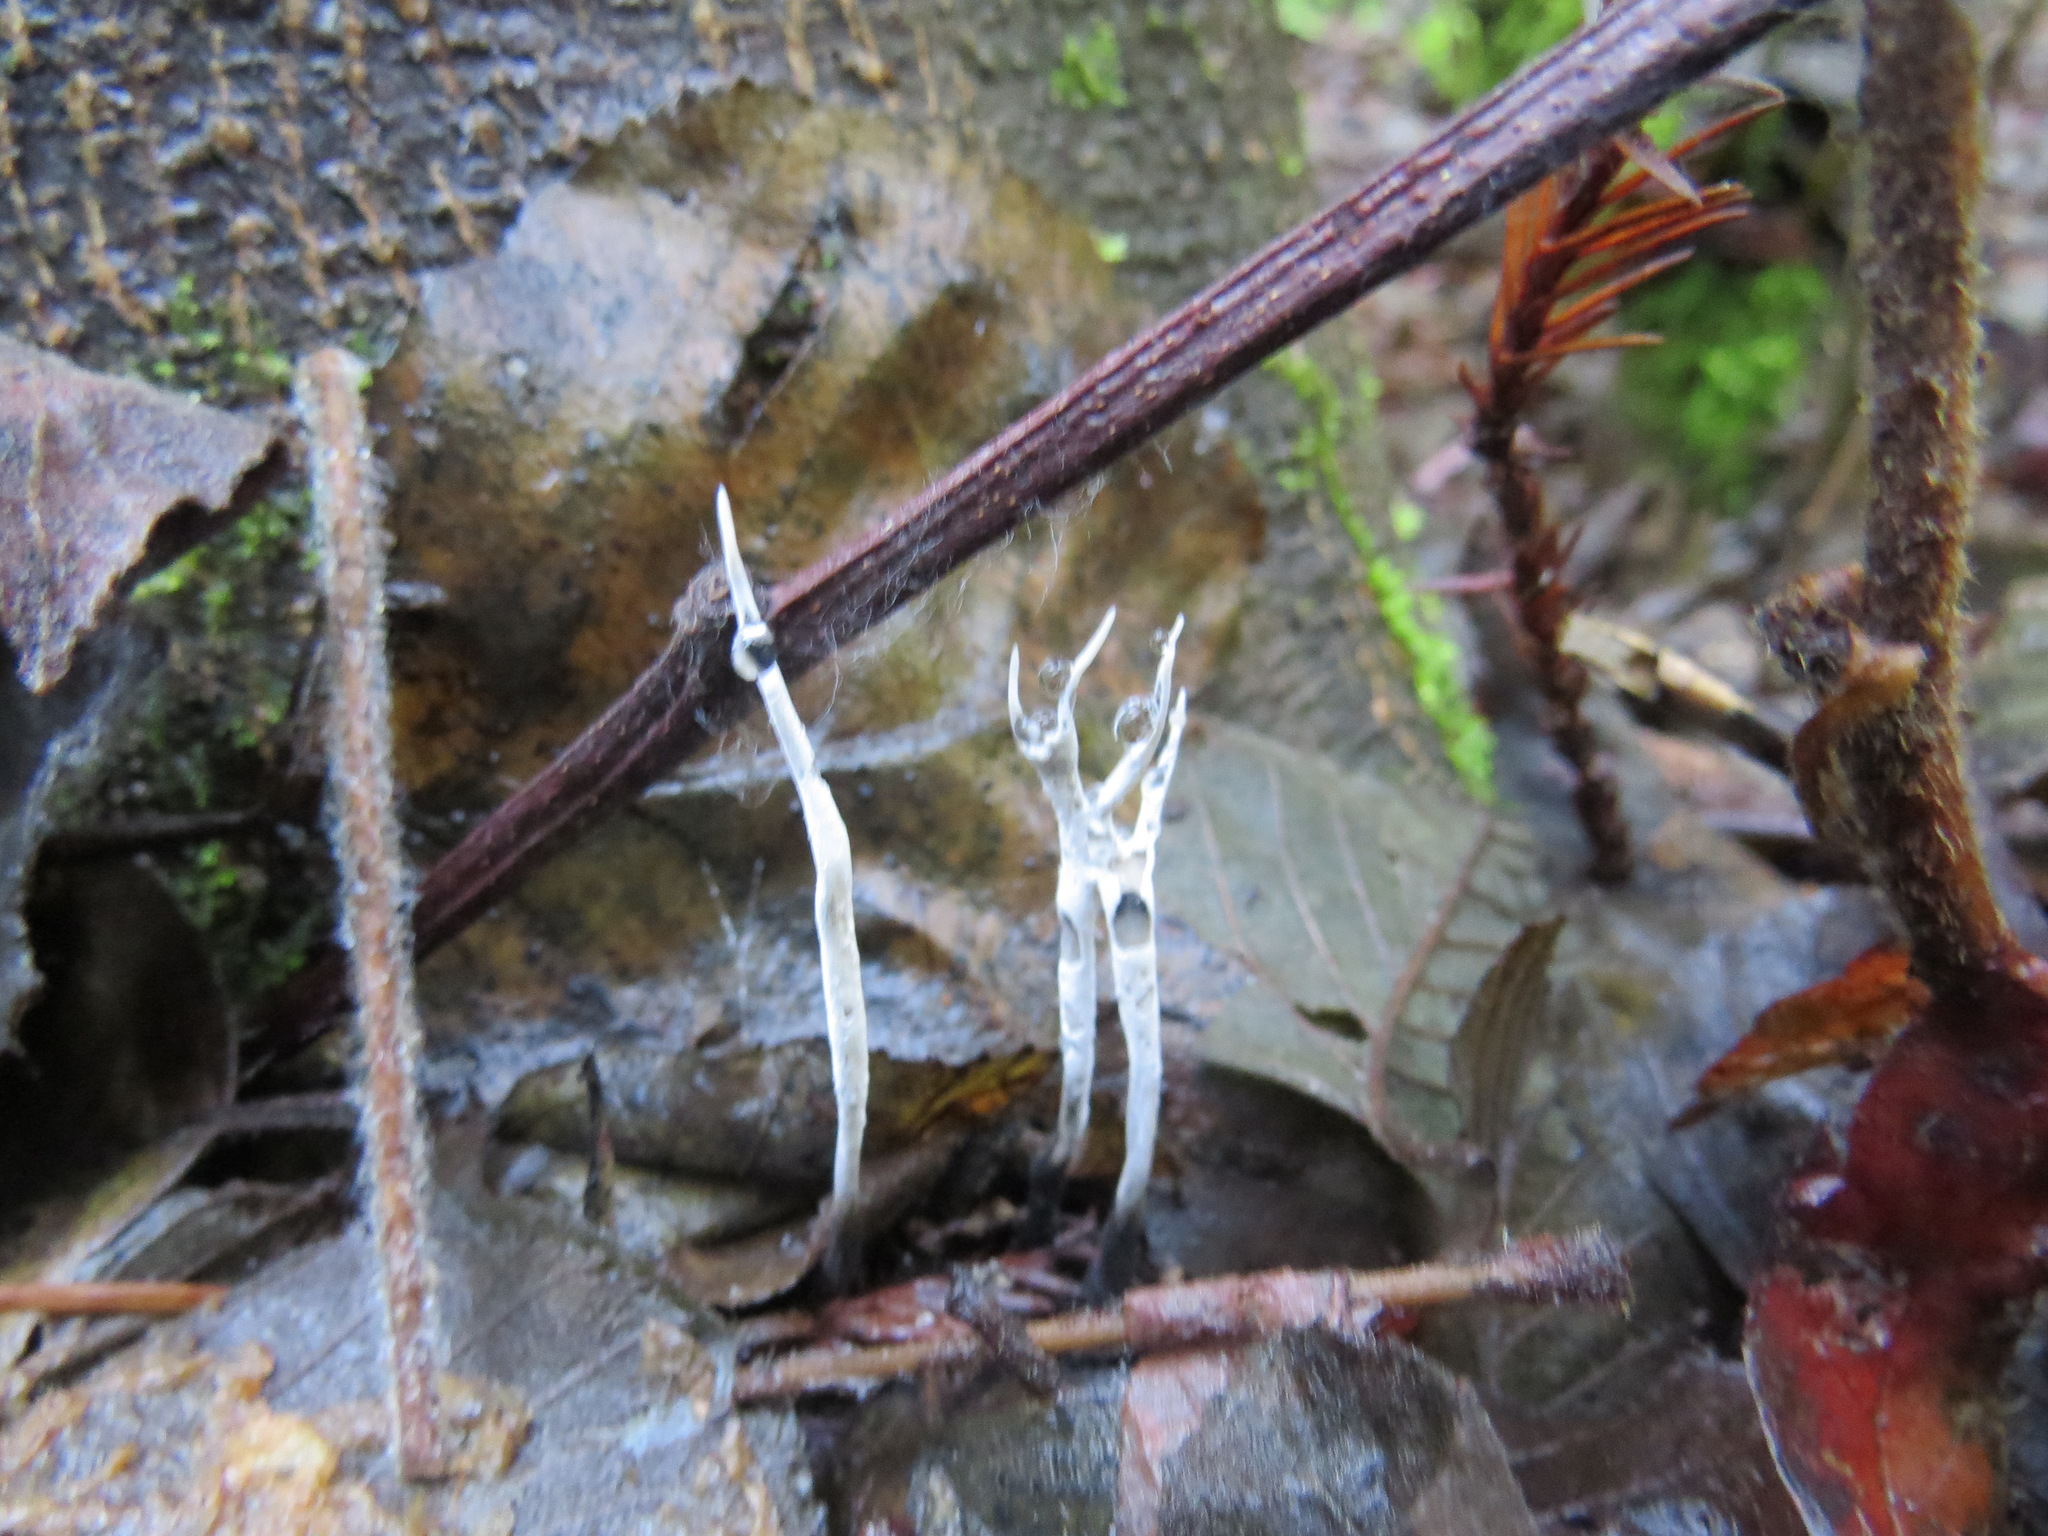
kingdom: Fungi
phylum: Ascomycota
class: Sordariomycetes
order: Xylariales
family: Xylariaceae
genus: Xylaria
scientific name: Xylaria hypoxylon
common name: Candle-snuff fungus
